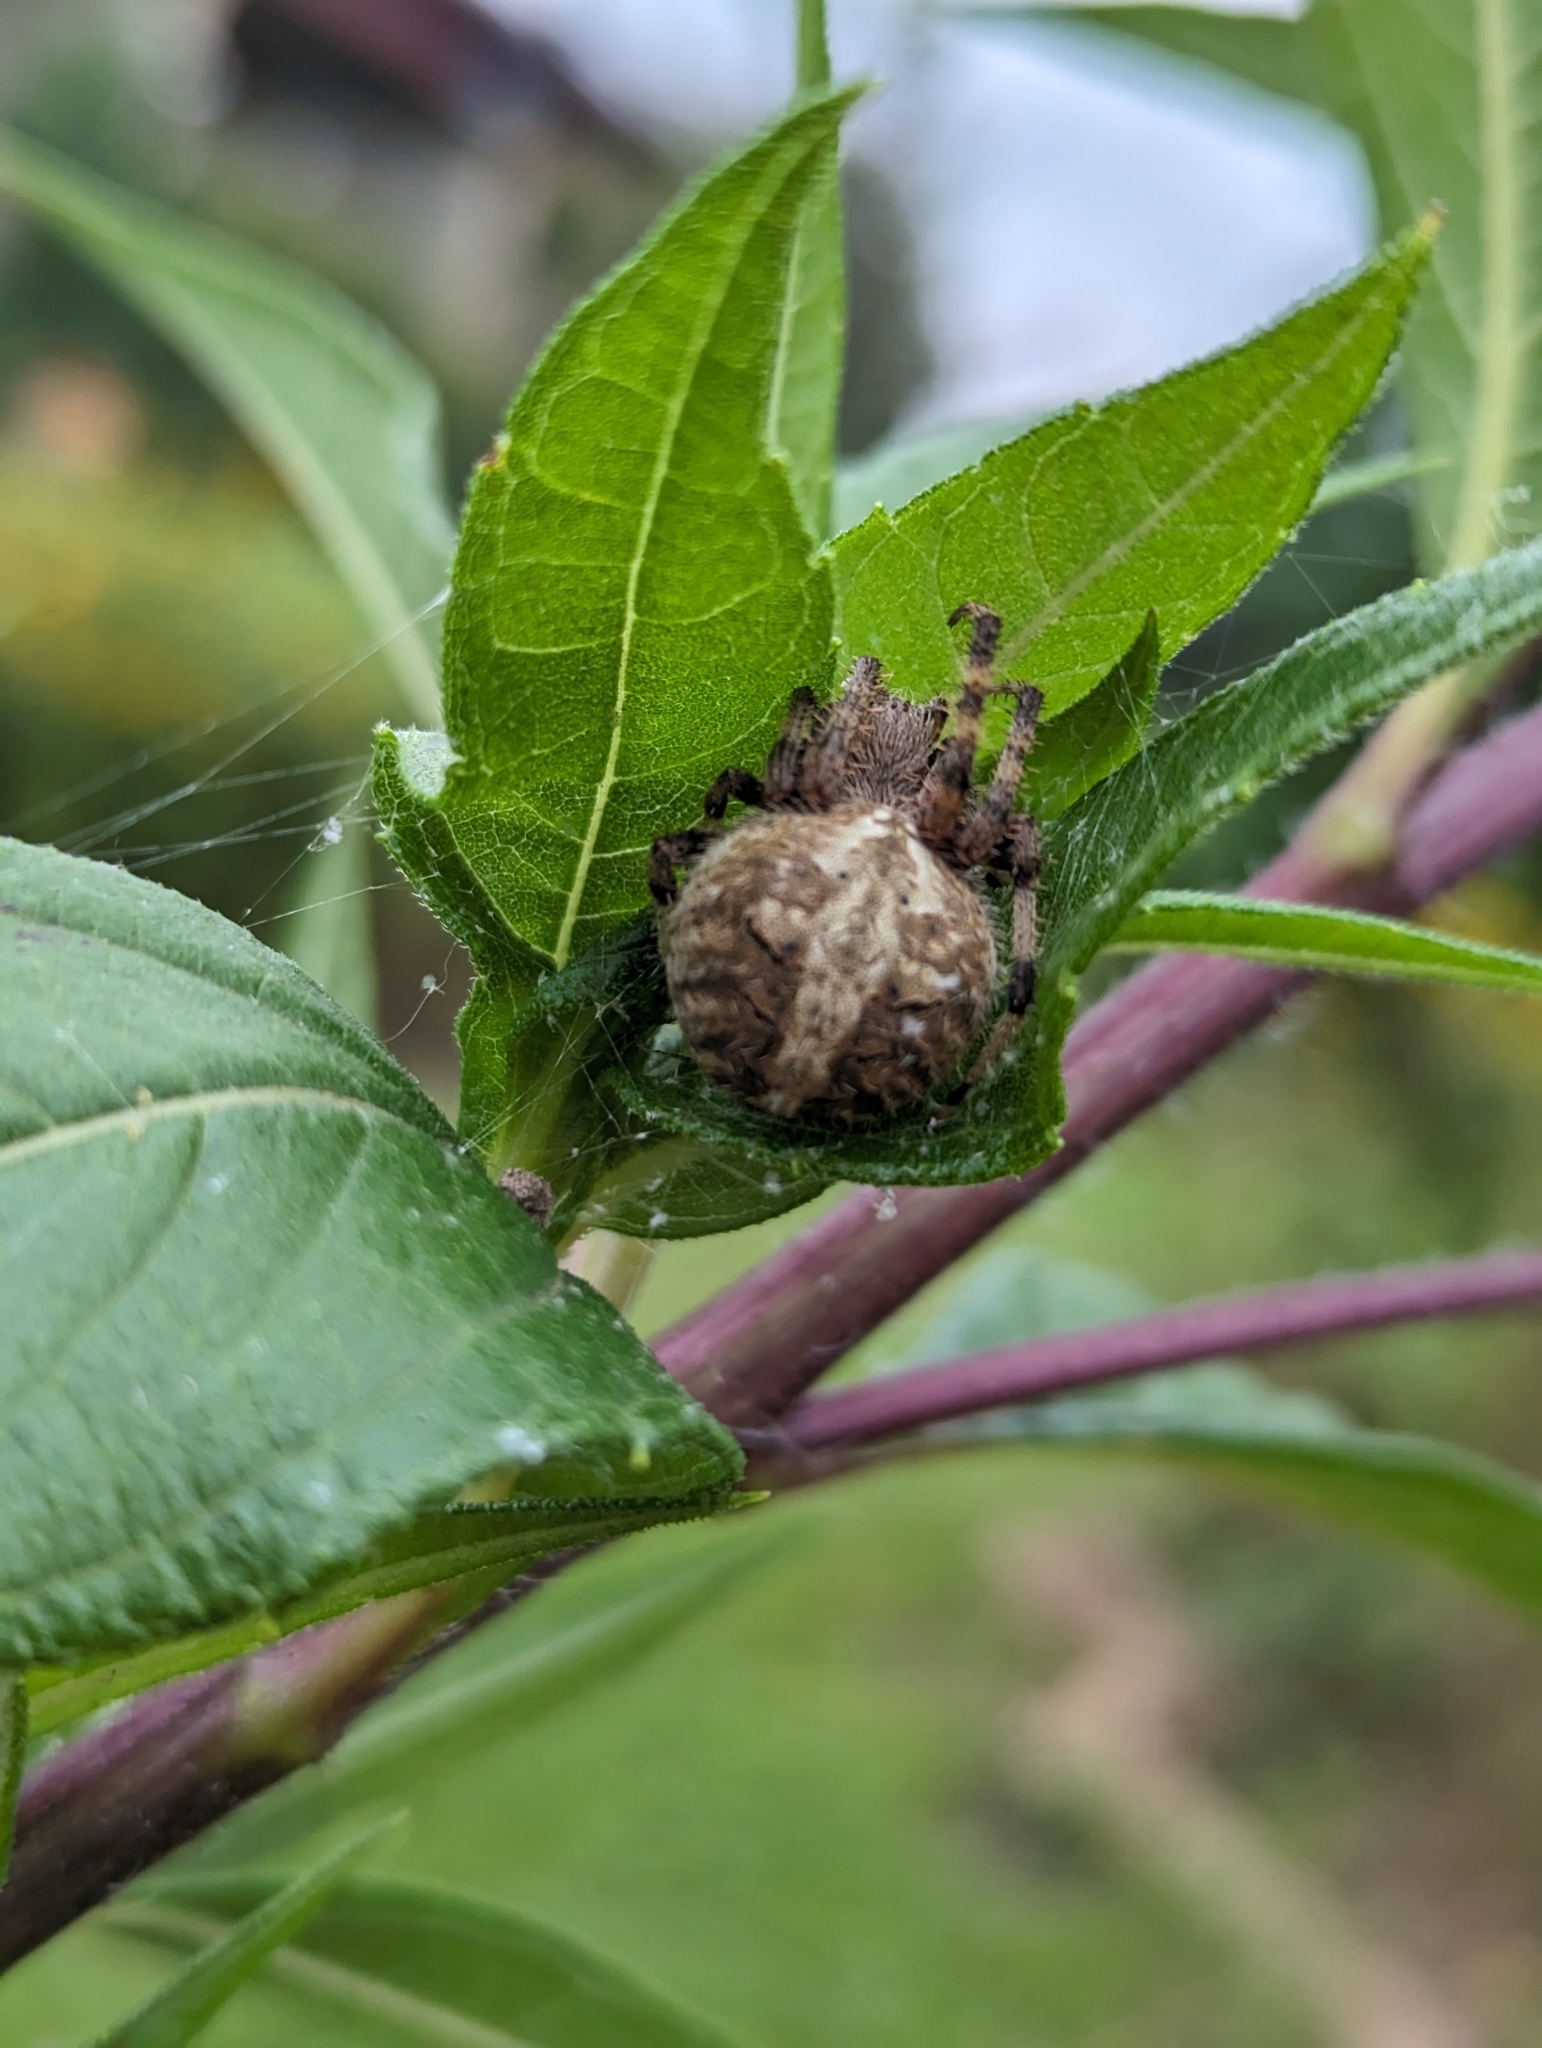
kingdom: Animalia
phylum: Arthropoda
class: Arachnida
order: Araneae
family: Araneidae
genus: Neoscona
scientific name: Neoscona arabesca
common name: Orb weavers
